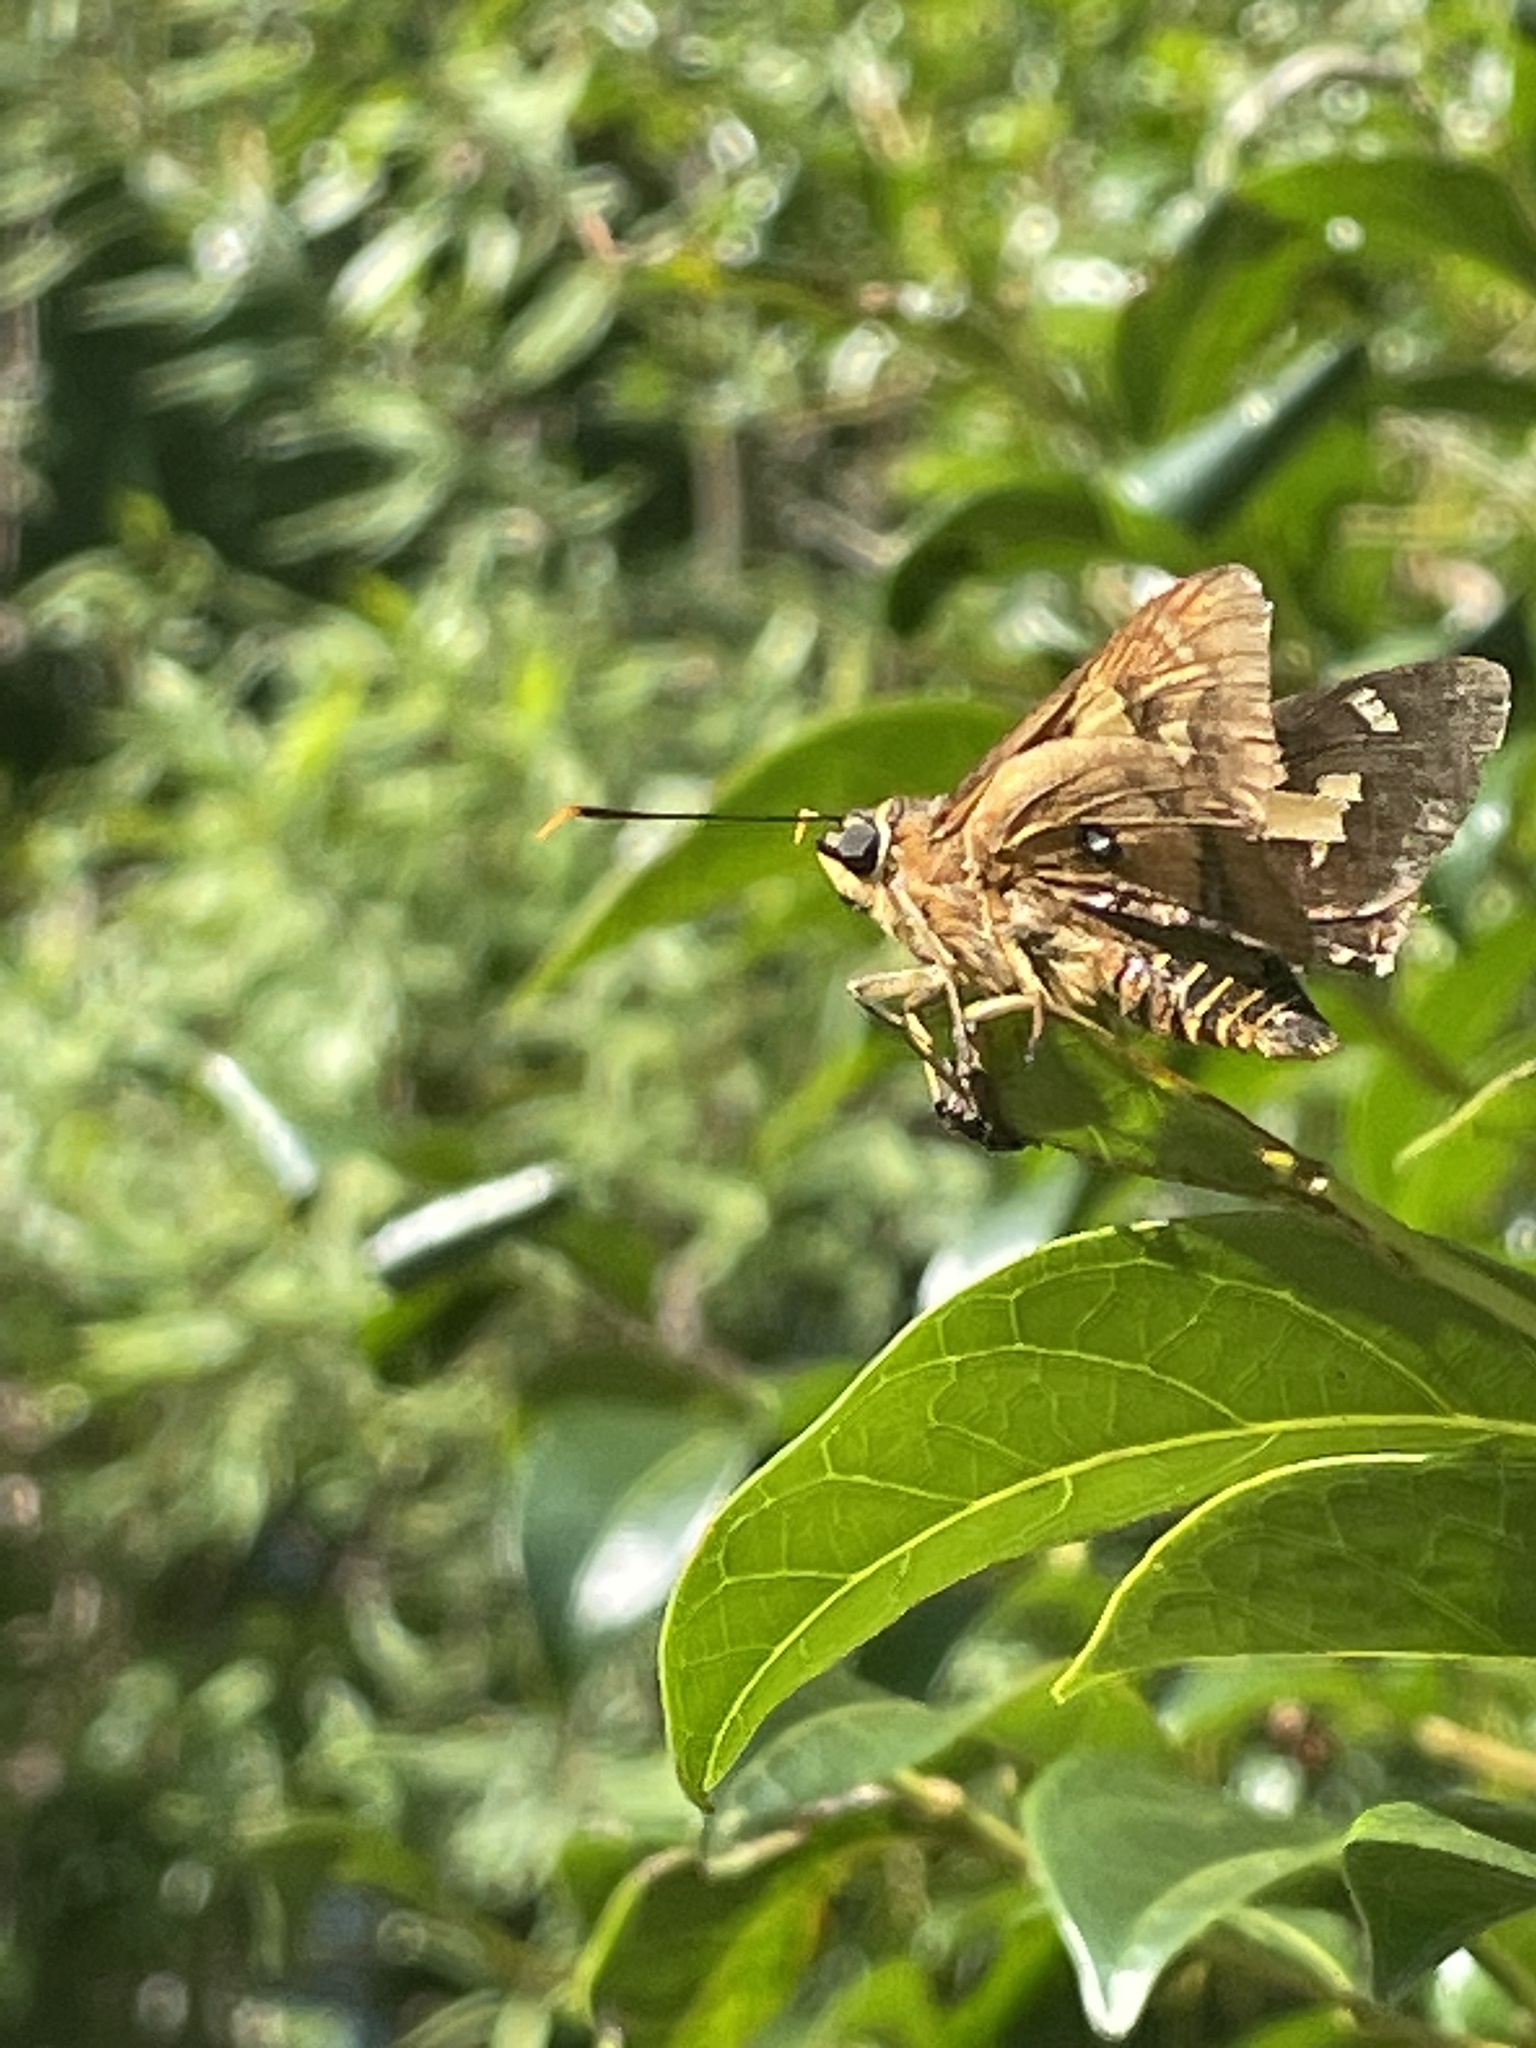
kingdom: Animalia
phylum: Arthropoda
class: Insecta
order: Lepidoptera
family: Hesperiidae
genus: Trapezites
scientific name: Trapezites symmomus
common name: Splendid ochre
